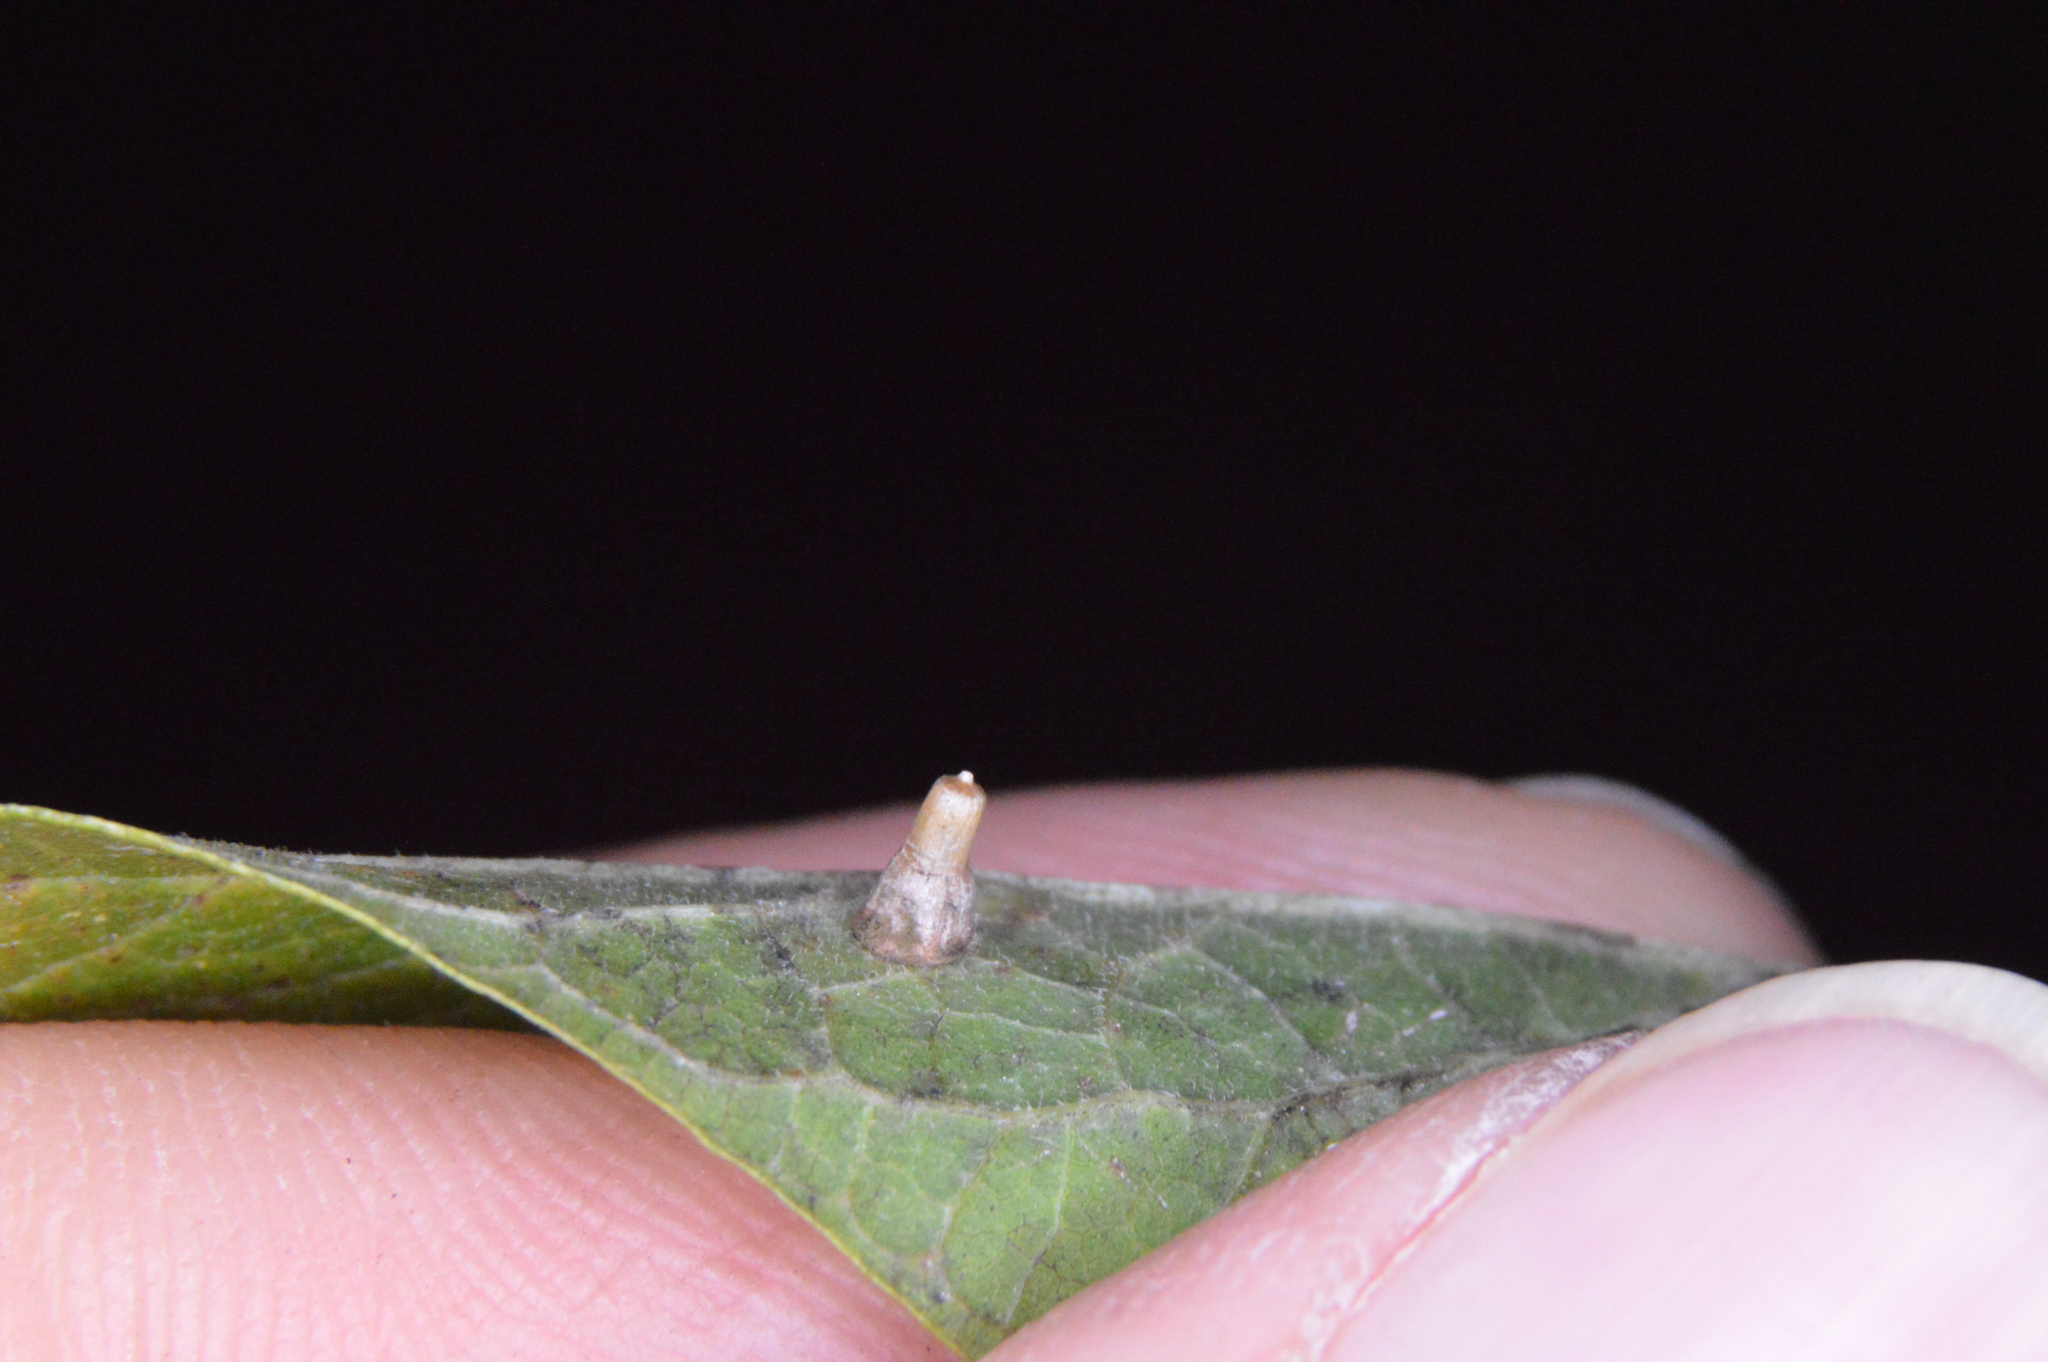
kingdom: Animalia
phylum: Arthropoda
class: Insecta
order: Diptera
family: Cecidomyiidae
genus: Celticecis
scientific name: Celticecis aciculata
